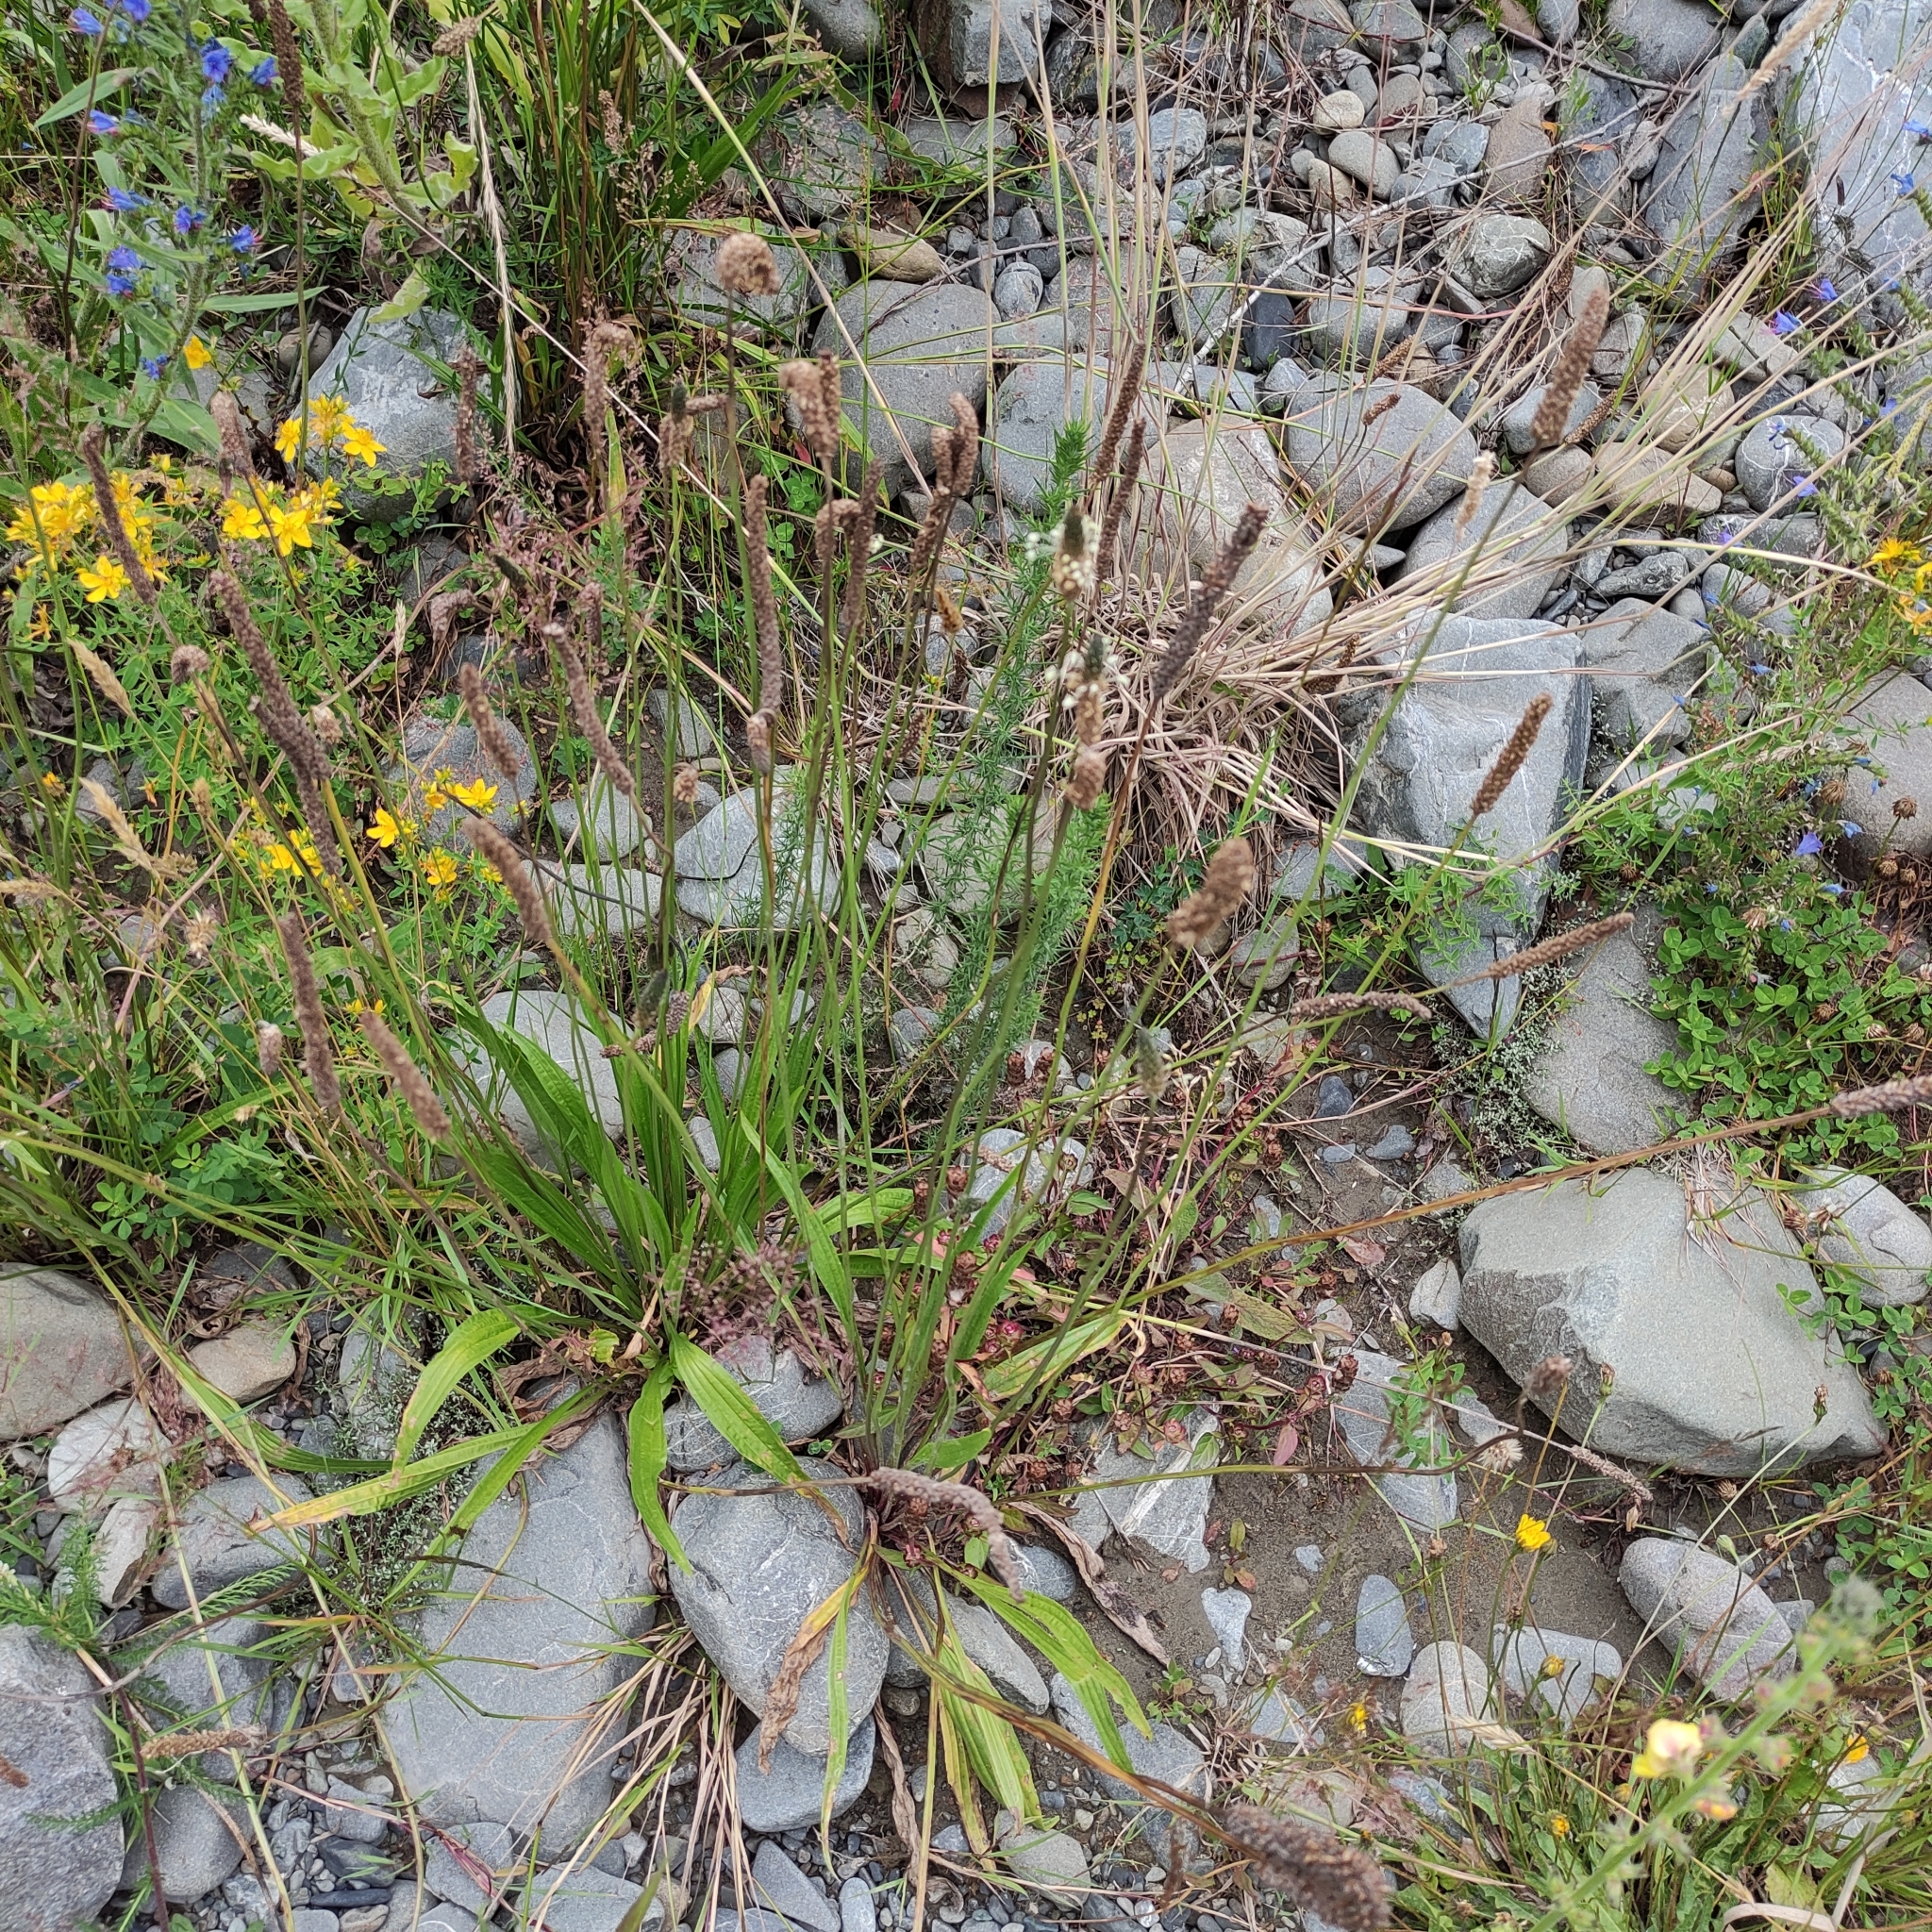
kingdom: Plantae
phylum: Tracheophyta
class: Magnoliopsida
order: Lamiales
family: Plantaginaceae
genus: Plantago
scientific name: Plantago lanceolata
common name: Ribwort plantain
